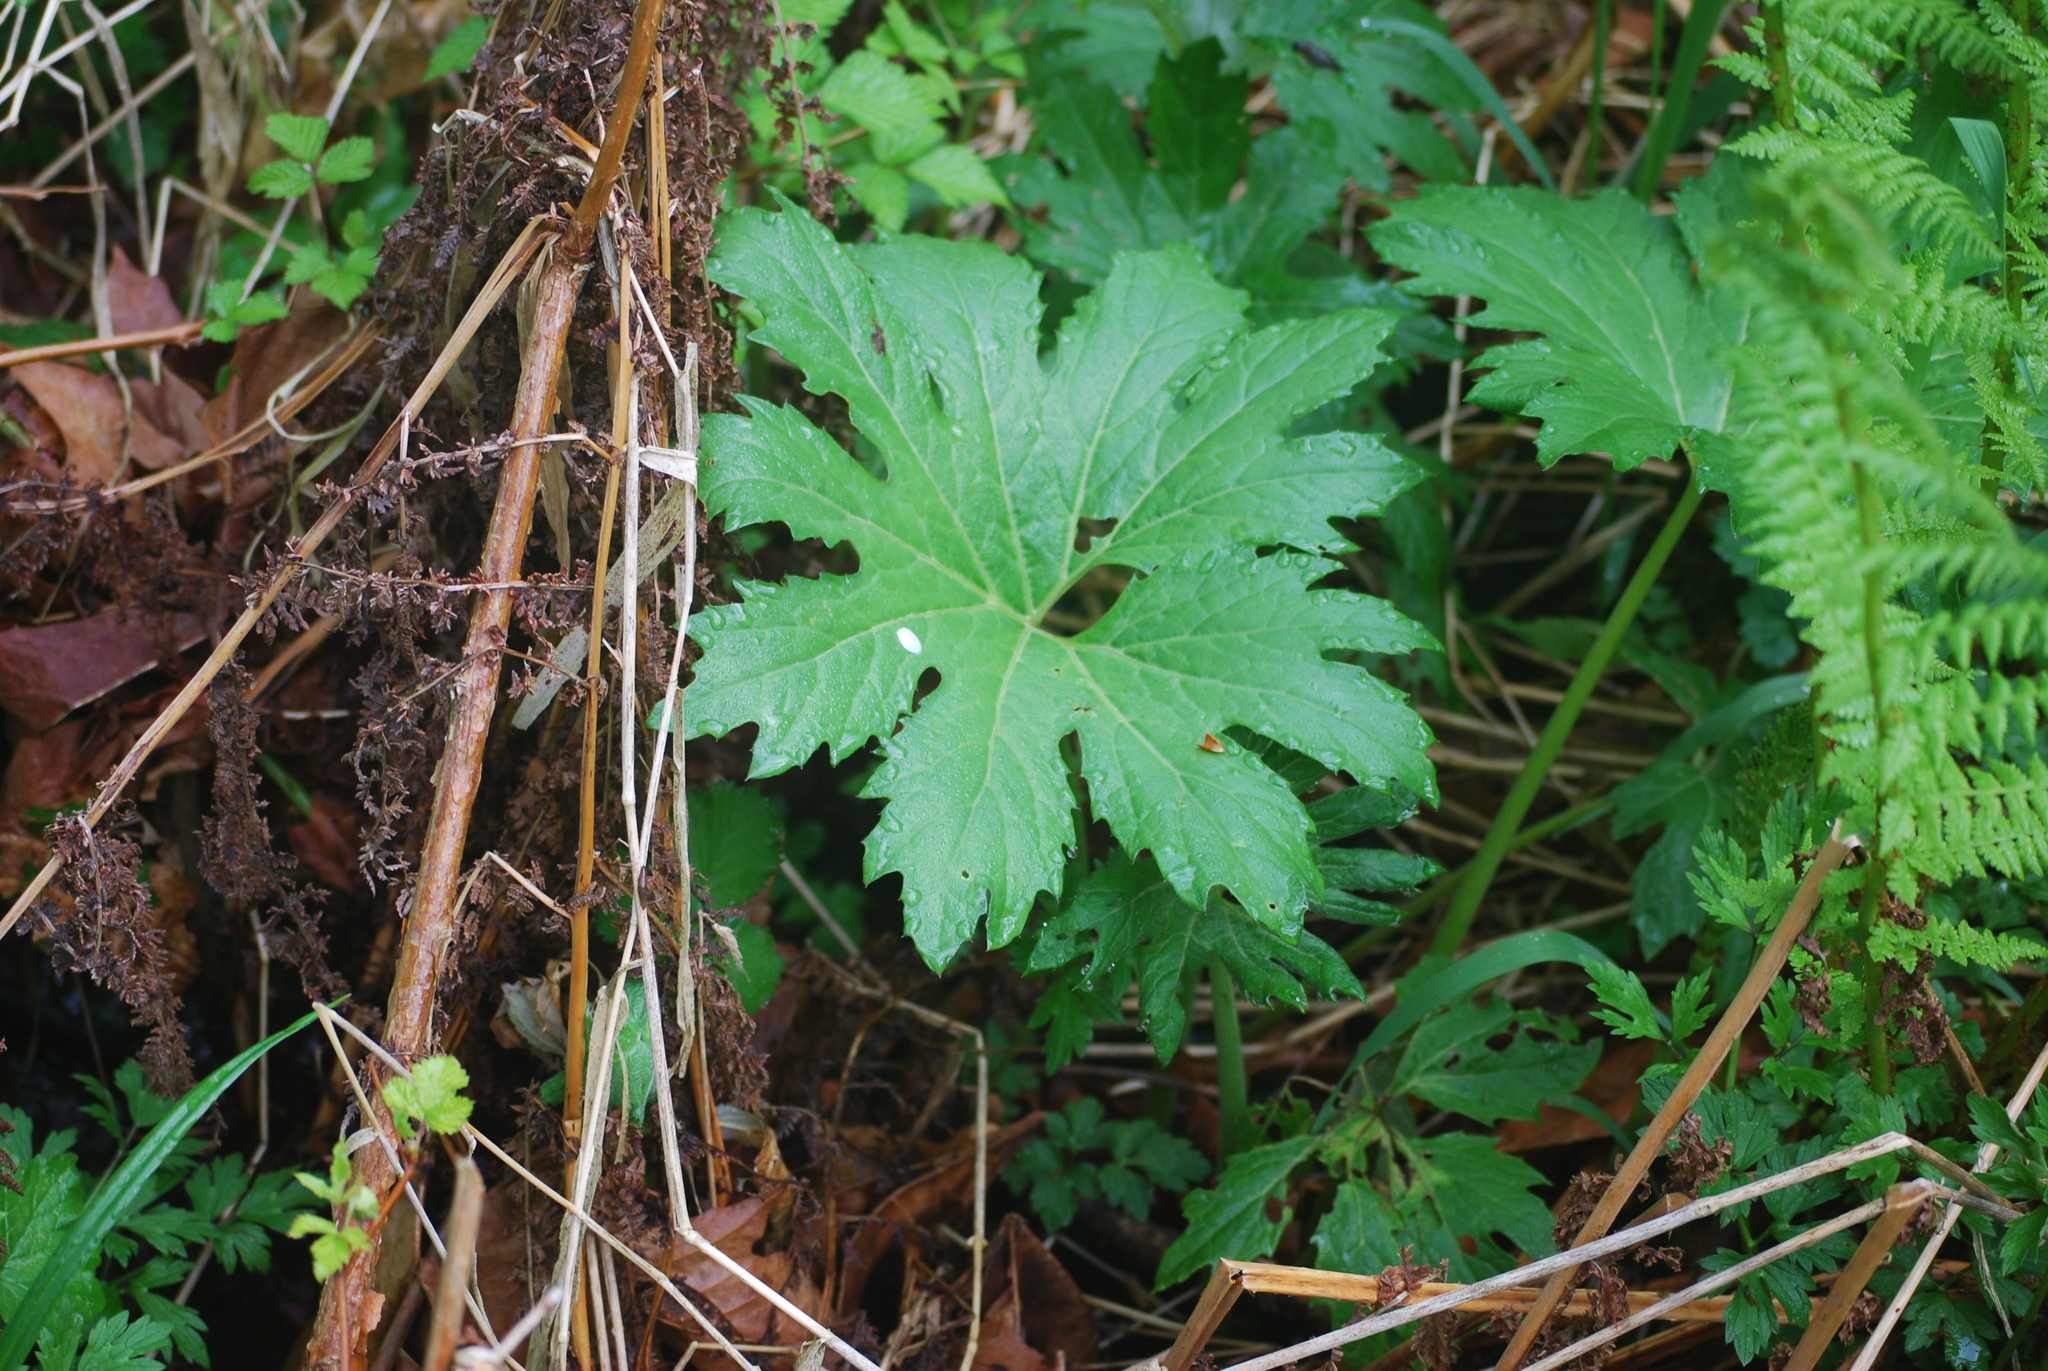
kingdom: Plantae
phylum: Tracheophyta
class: Magnoliopsida
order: Asterales
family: Asteraceae
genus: Petasites
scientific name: Petasites frigidus
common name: Arctic butterbur
